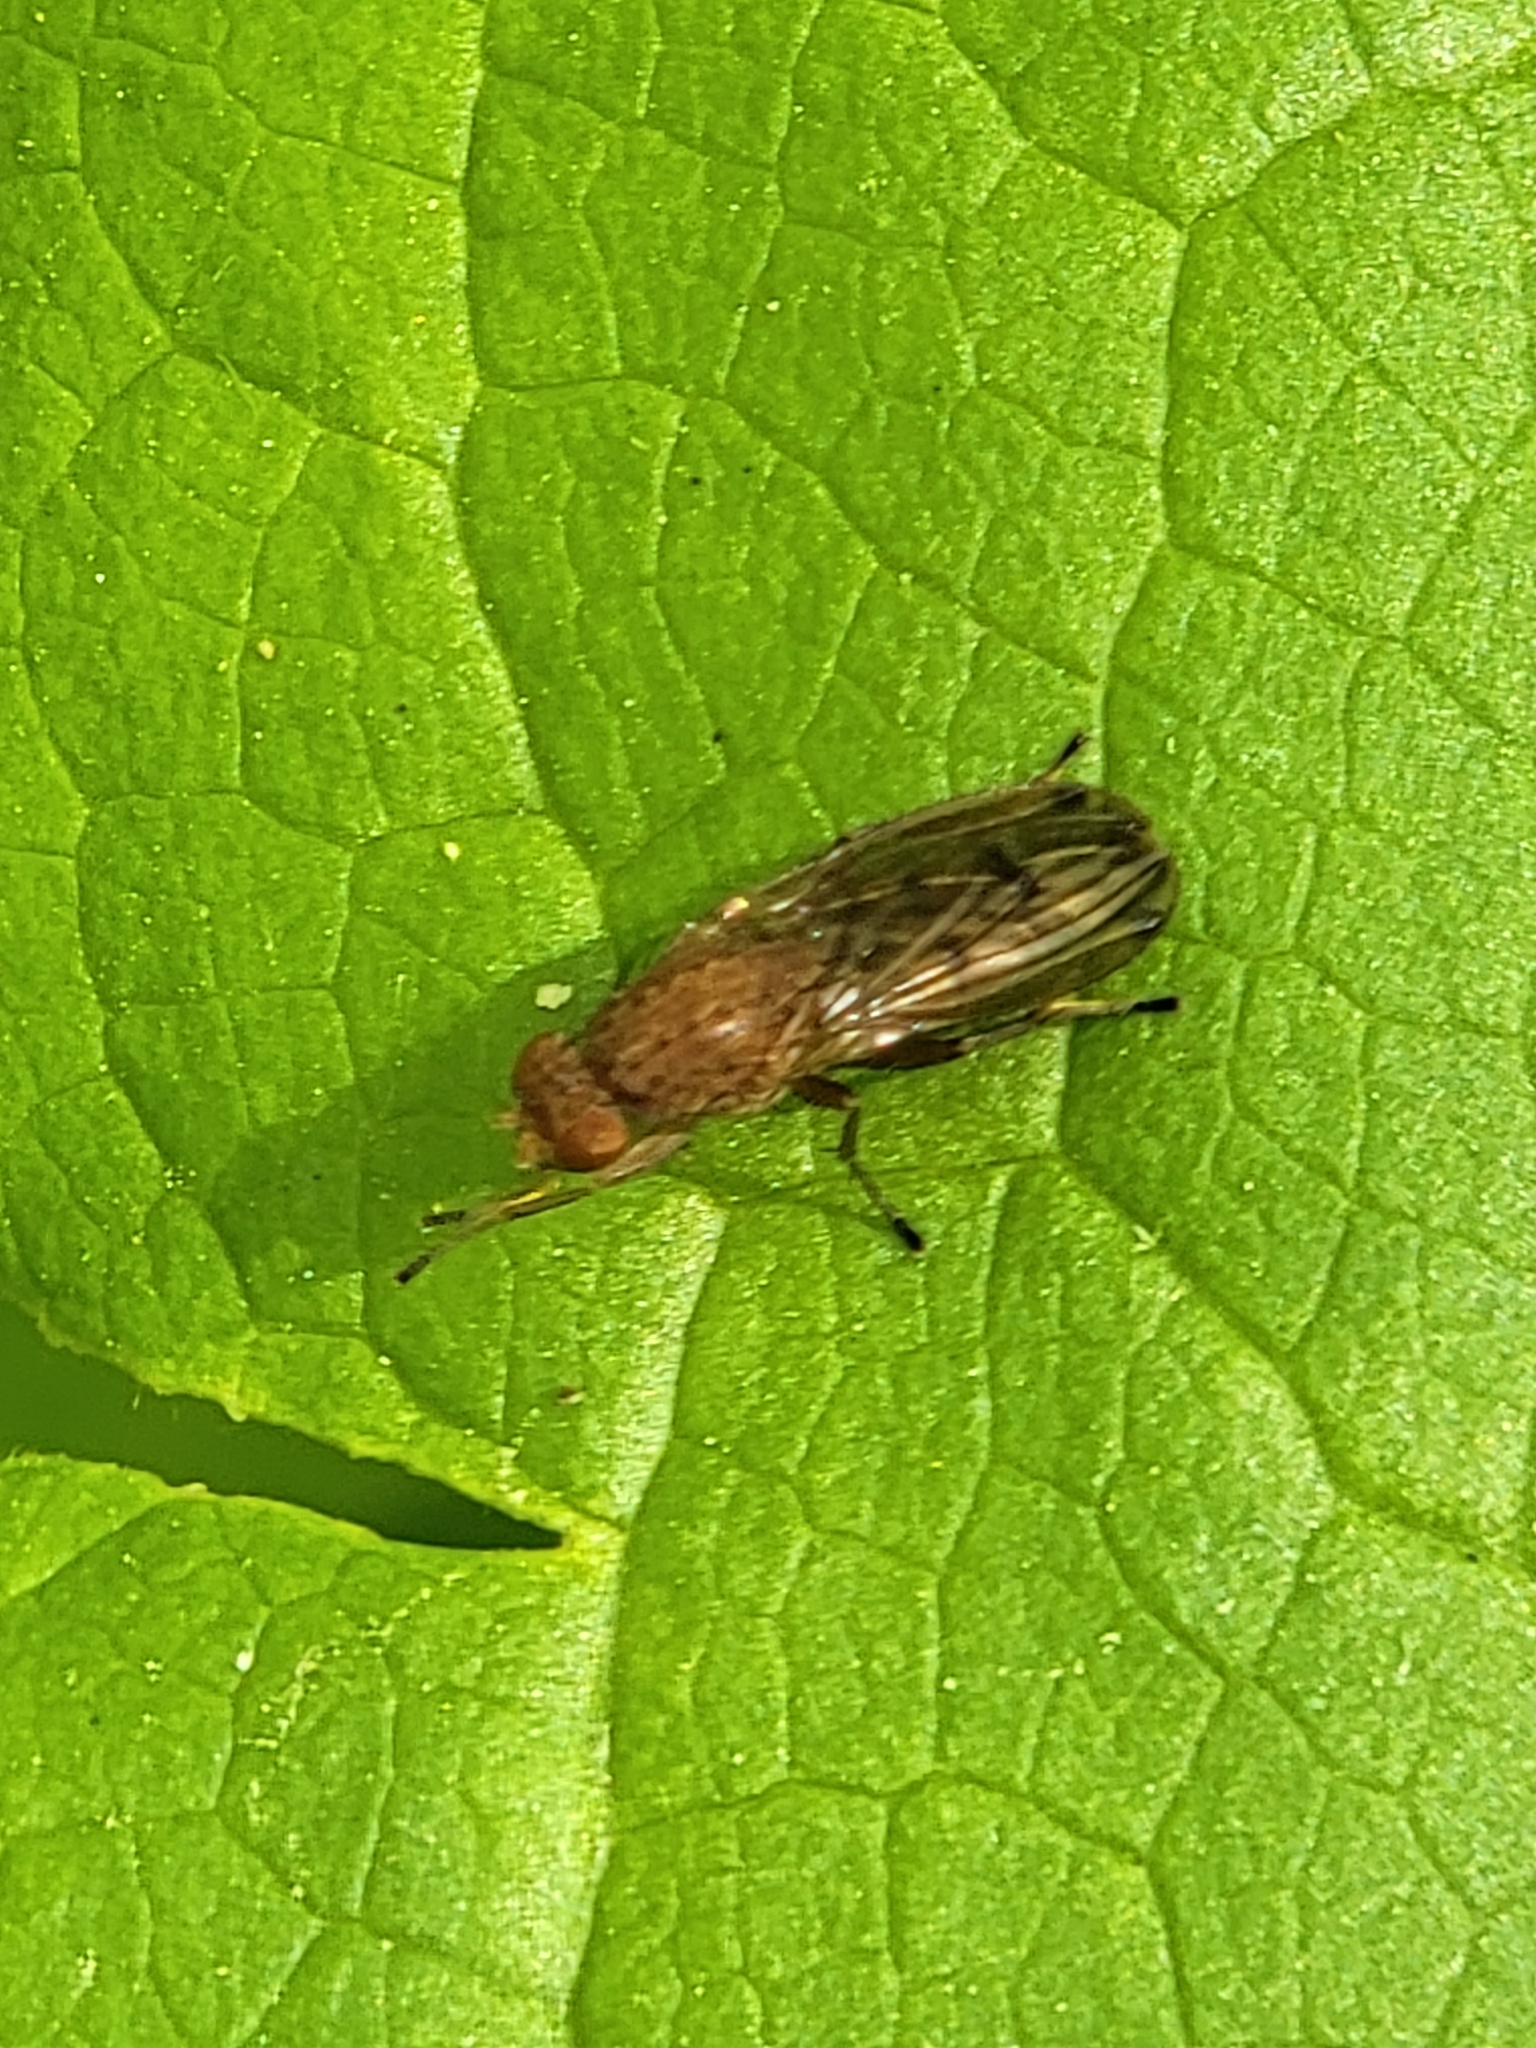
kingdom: Animalia
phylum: Arthropoda
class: Insecta
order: Diptera
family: Heleomyzidae
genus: Suillia
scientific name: Suillia
